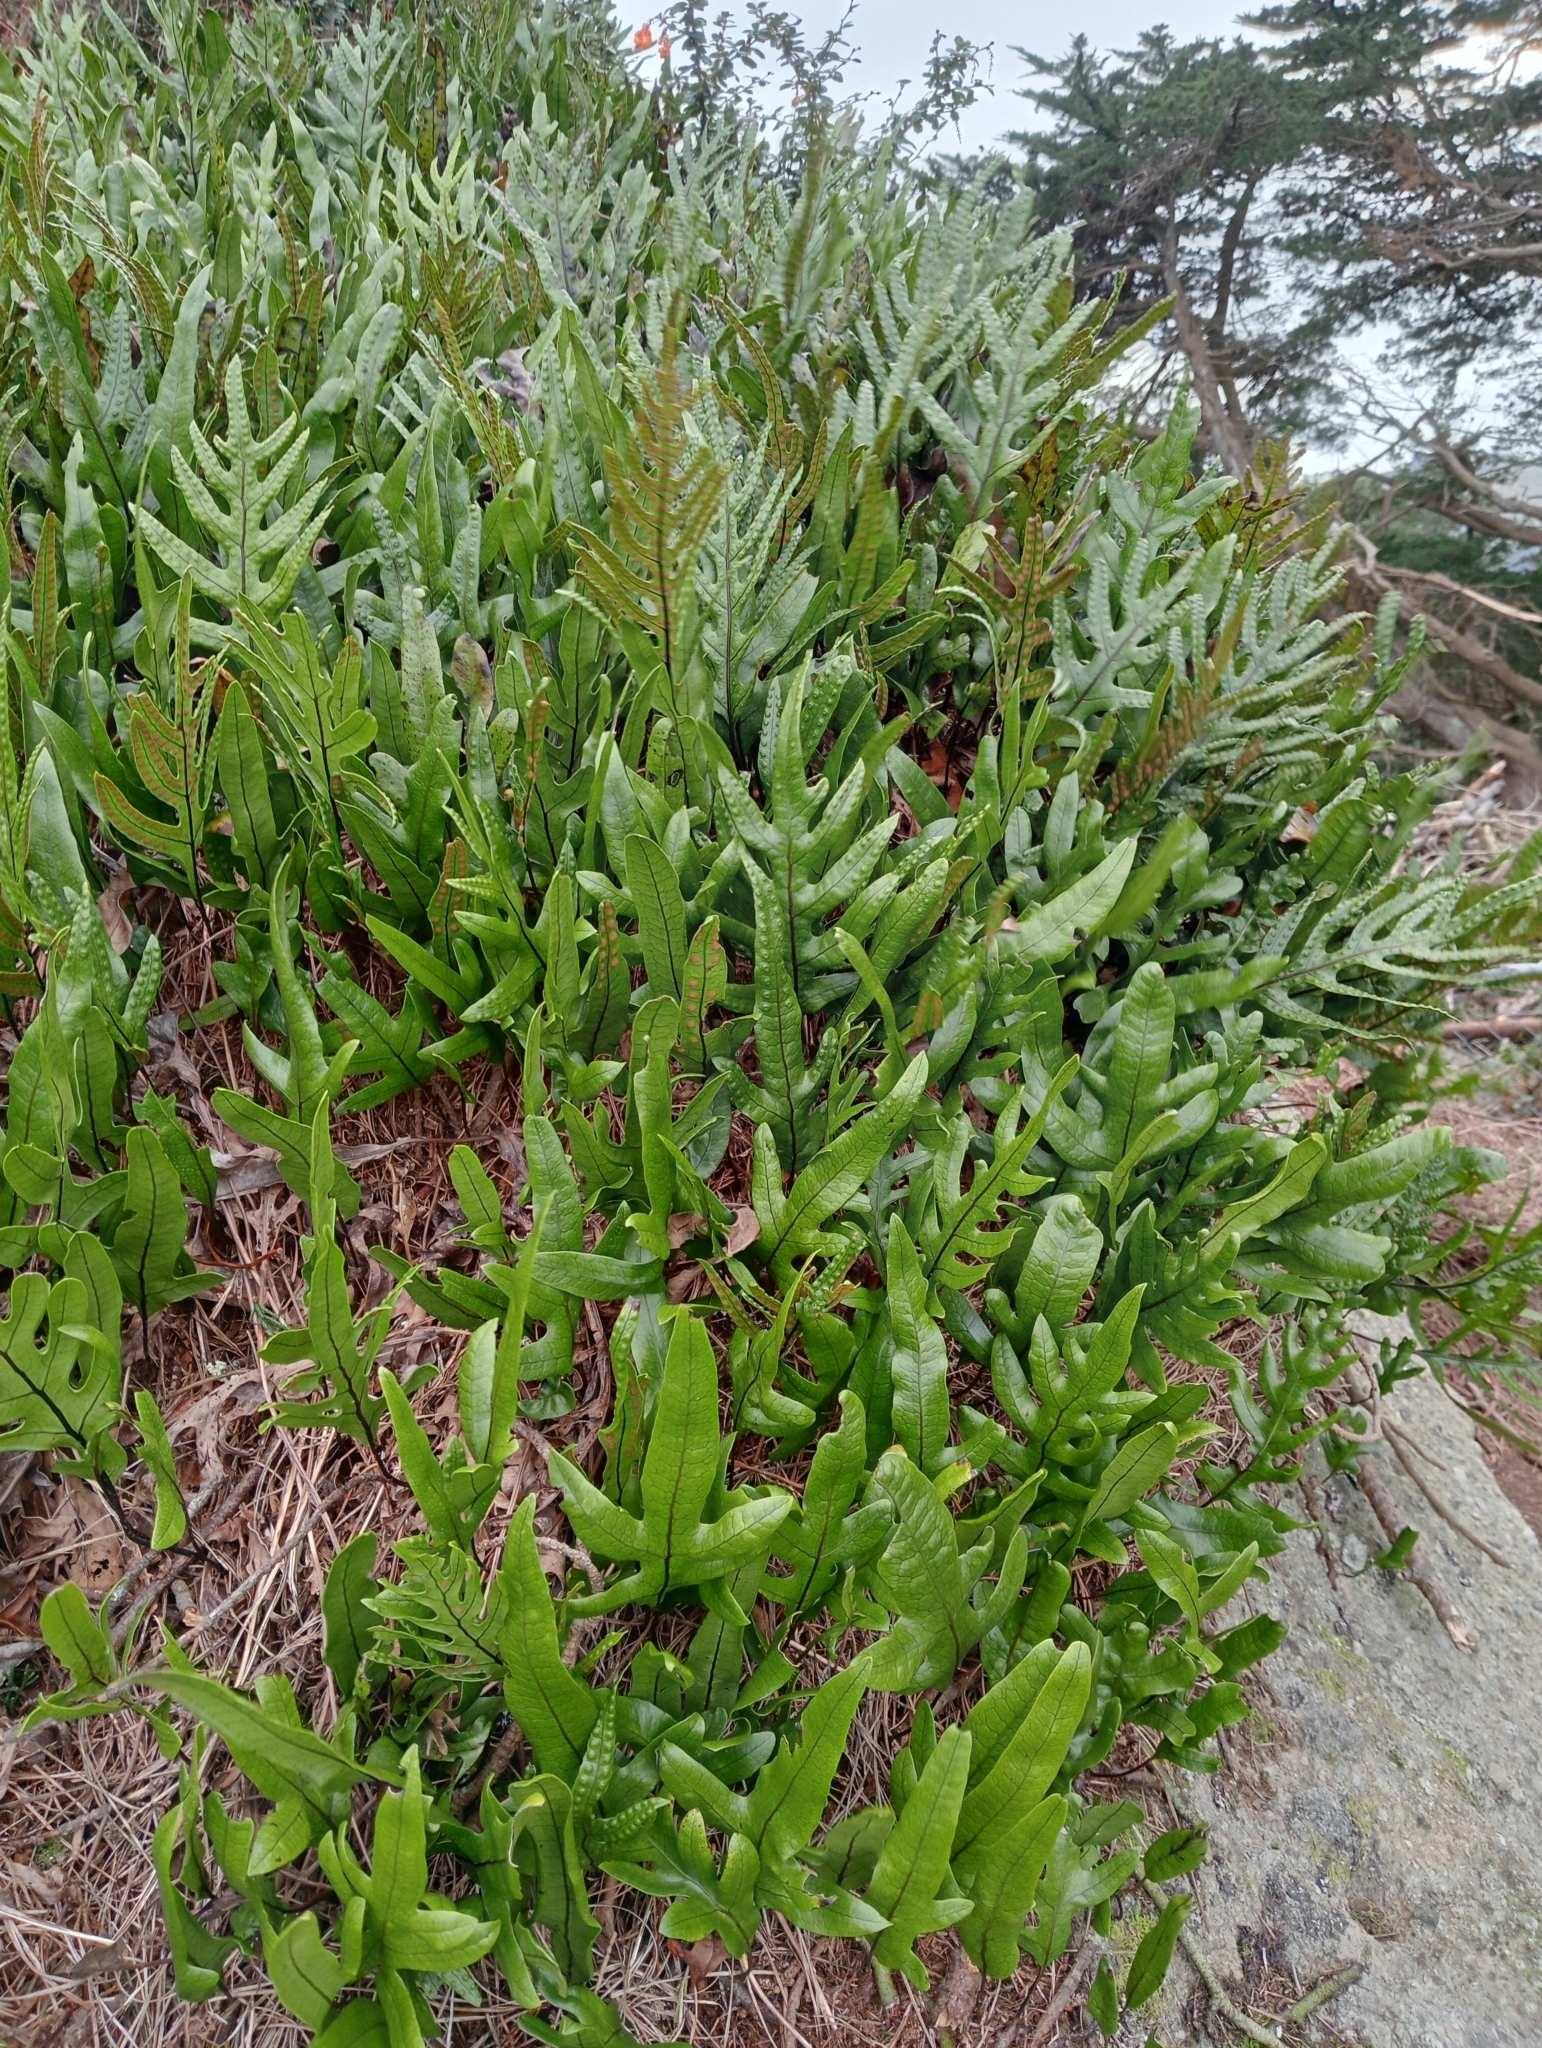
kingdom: Plantae
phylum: Tracheophyta
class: Polypodiopsida
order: Polypodiales
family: Polypodiaceae
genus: Lecanopteris
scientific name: Lecanopteris pustulata
